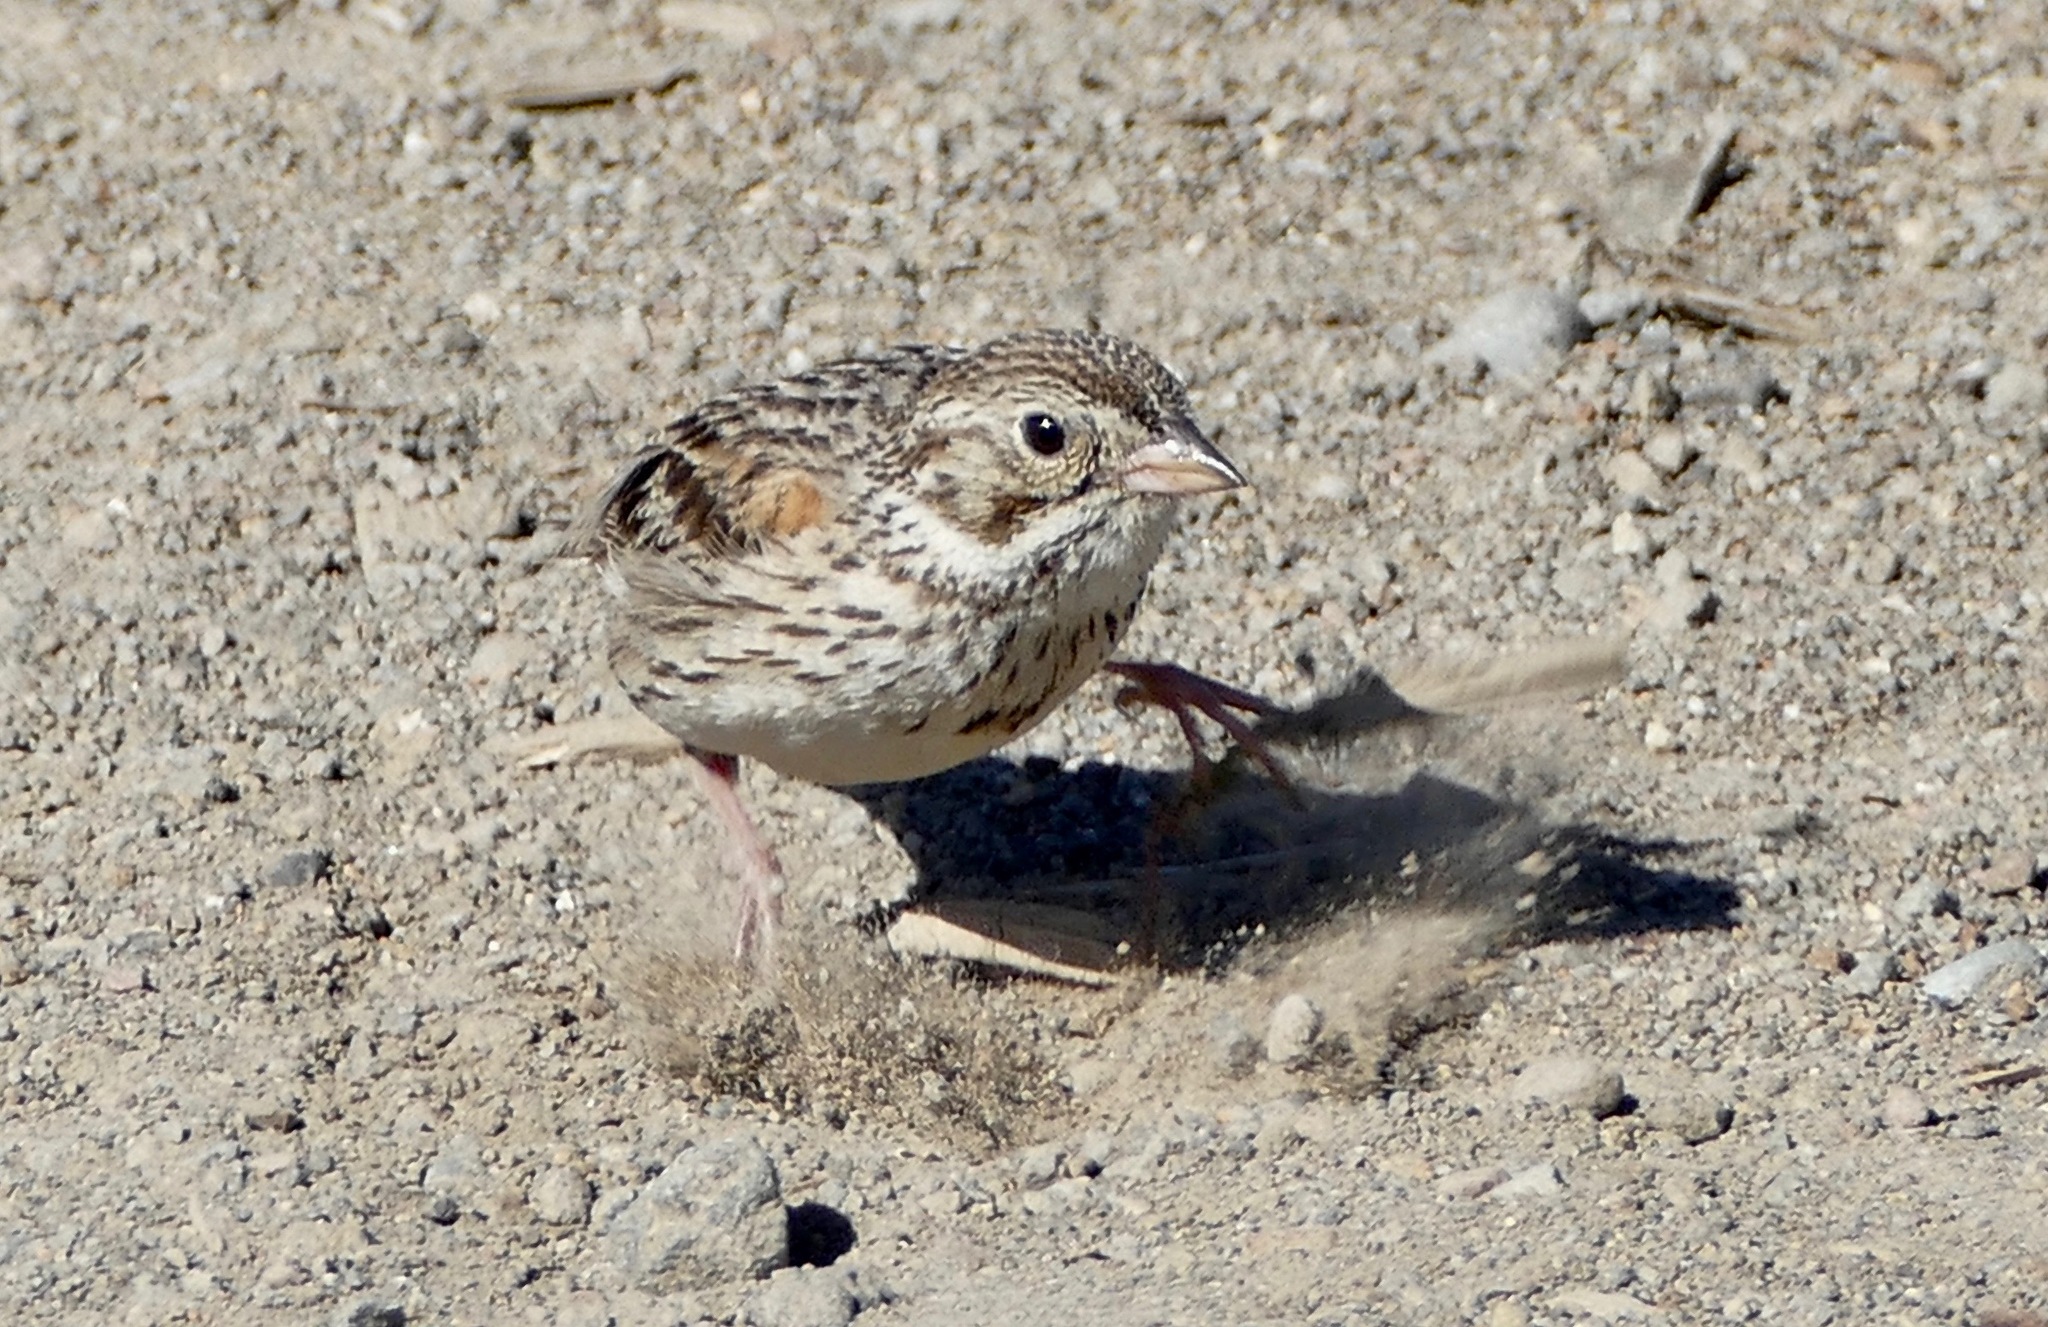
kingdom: Animalia
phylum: Chordata
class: Aves
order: Passeriformes
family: Passerellidae
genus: Pooecetes
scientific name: Pooecetes gramineus
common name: Vesper sparrow
